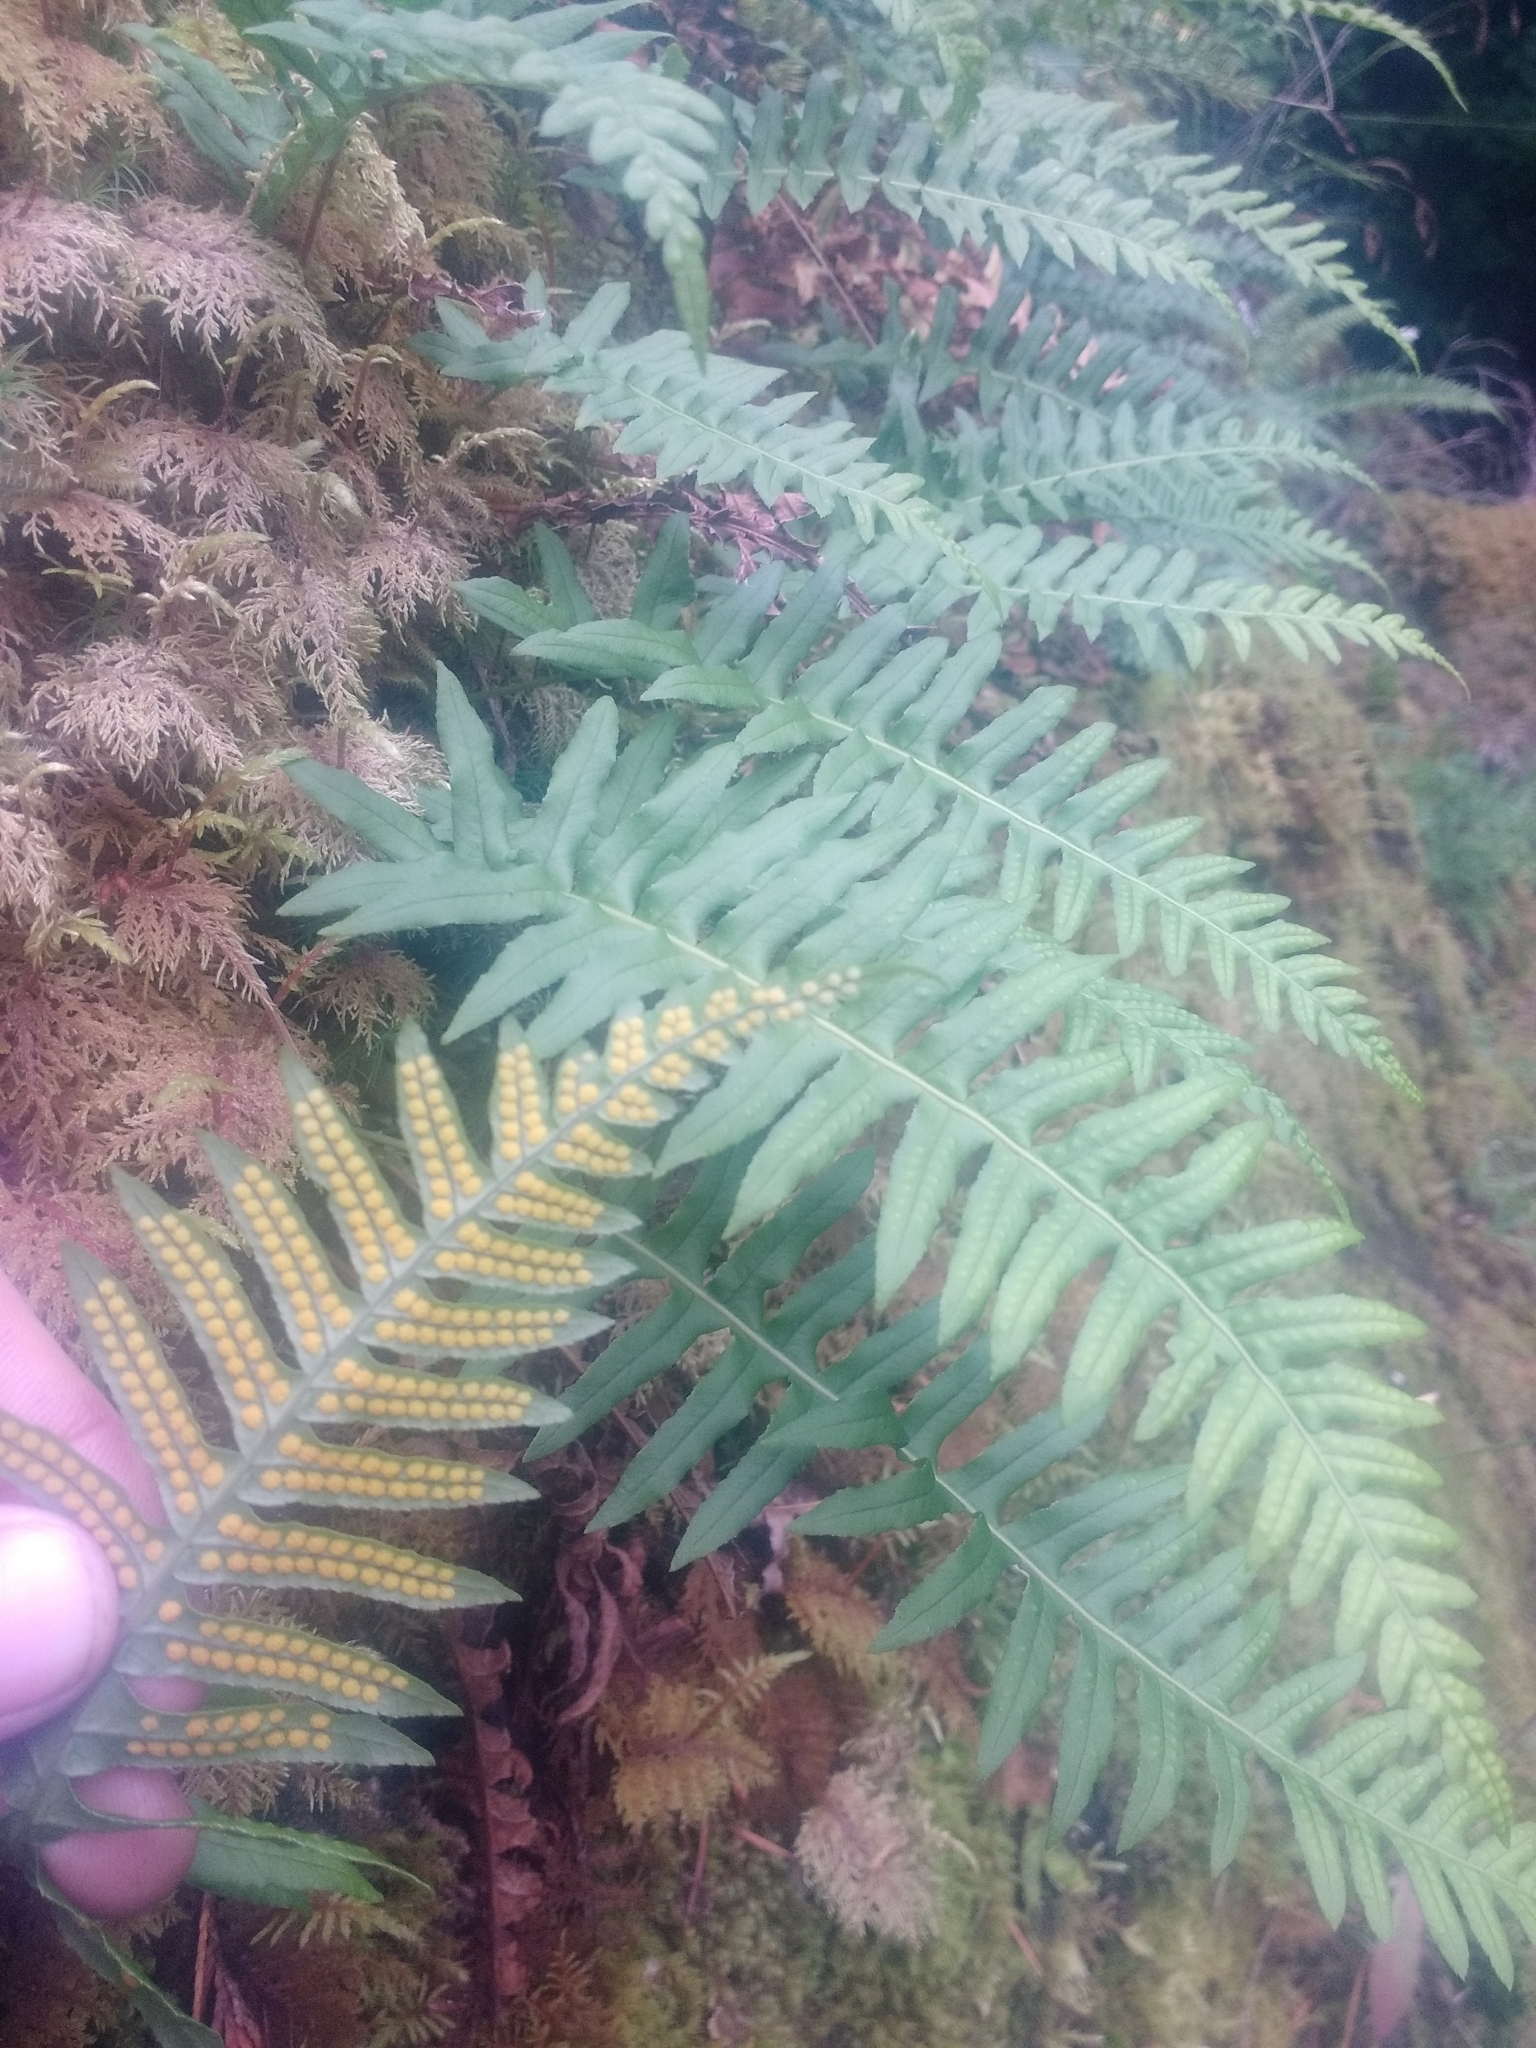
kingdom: Plantae
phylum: Tracheophyta
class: Polypodiopsida
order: Polypodiales
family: Polypodiaceae
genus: Polypodium
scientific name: Polypodium glycyrrhiza
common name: Licorice fern
